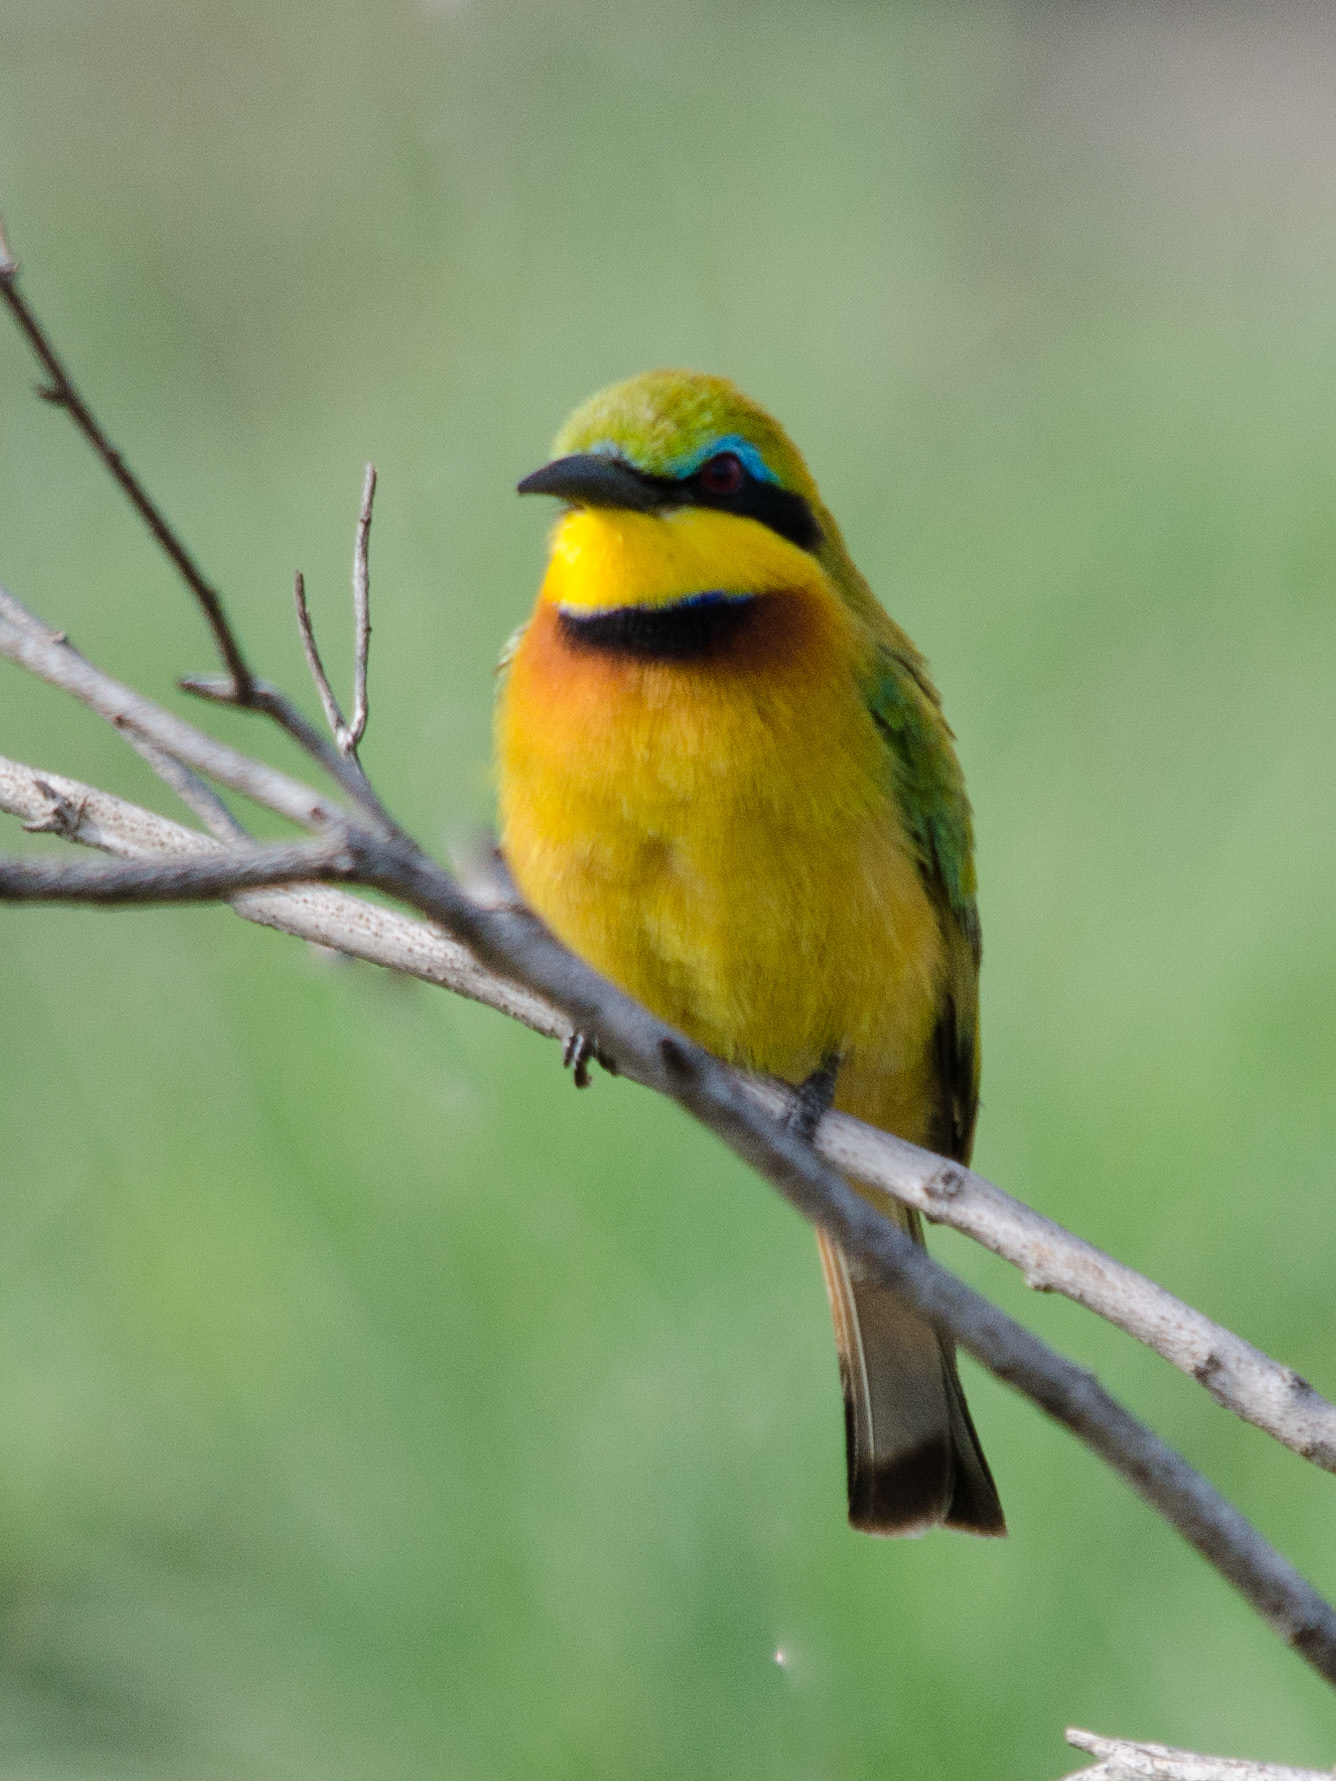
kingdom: Animalia
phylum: Chordata
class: Aves
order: Coraciiformes
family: Meropidae
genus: Merops
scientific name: Merops pusillus
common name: Little bee-eater
